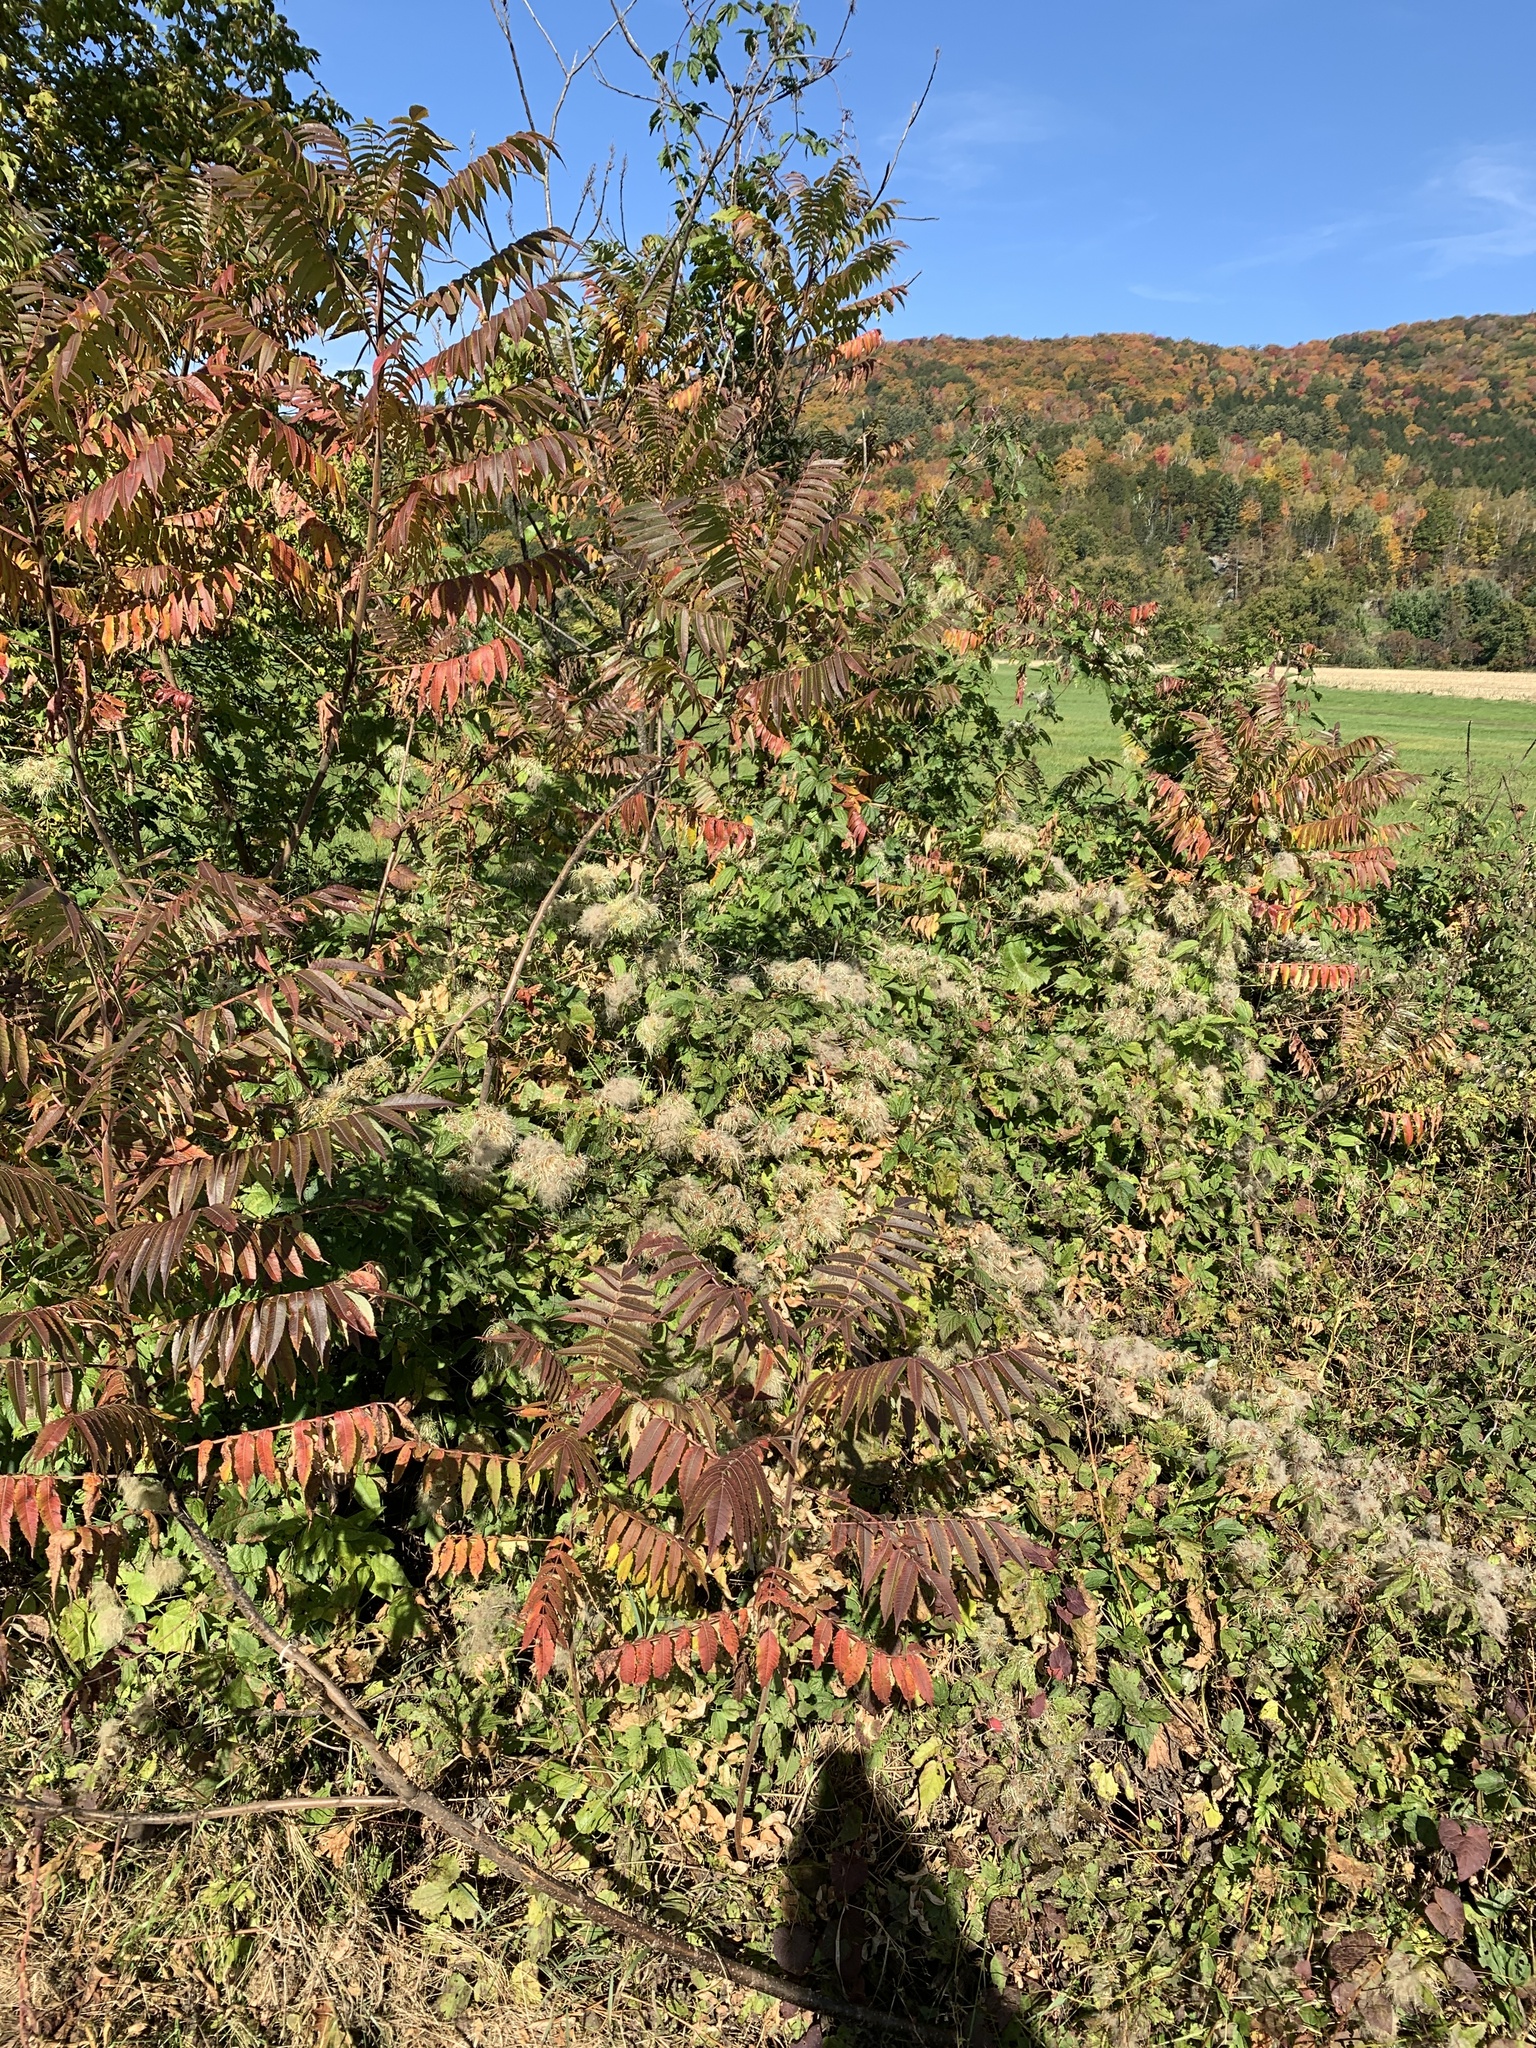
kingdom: Plantae
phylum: Tracheophyta
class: Magnoliopsida
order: Ranunculales
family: Ranunculaceae
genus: Clematis
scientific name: Clematis virginiana
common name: Virgin's-bower
